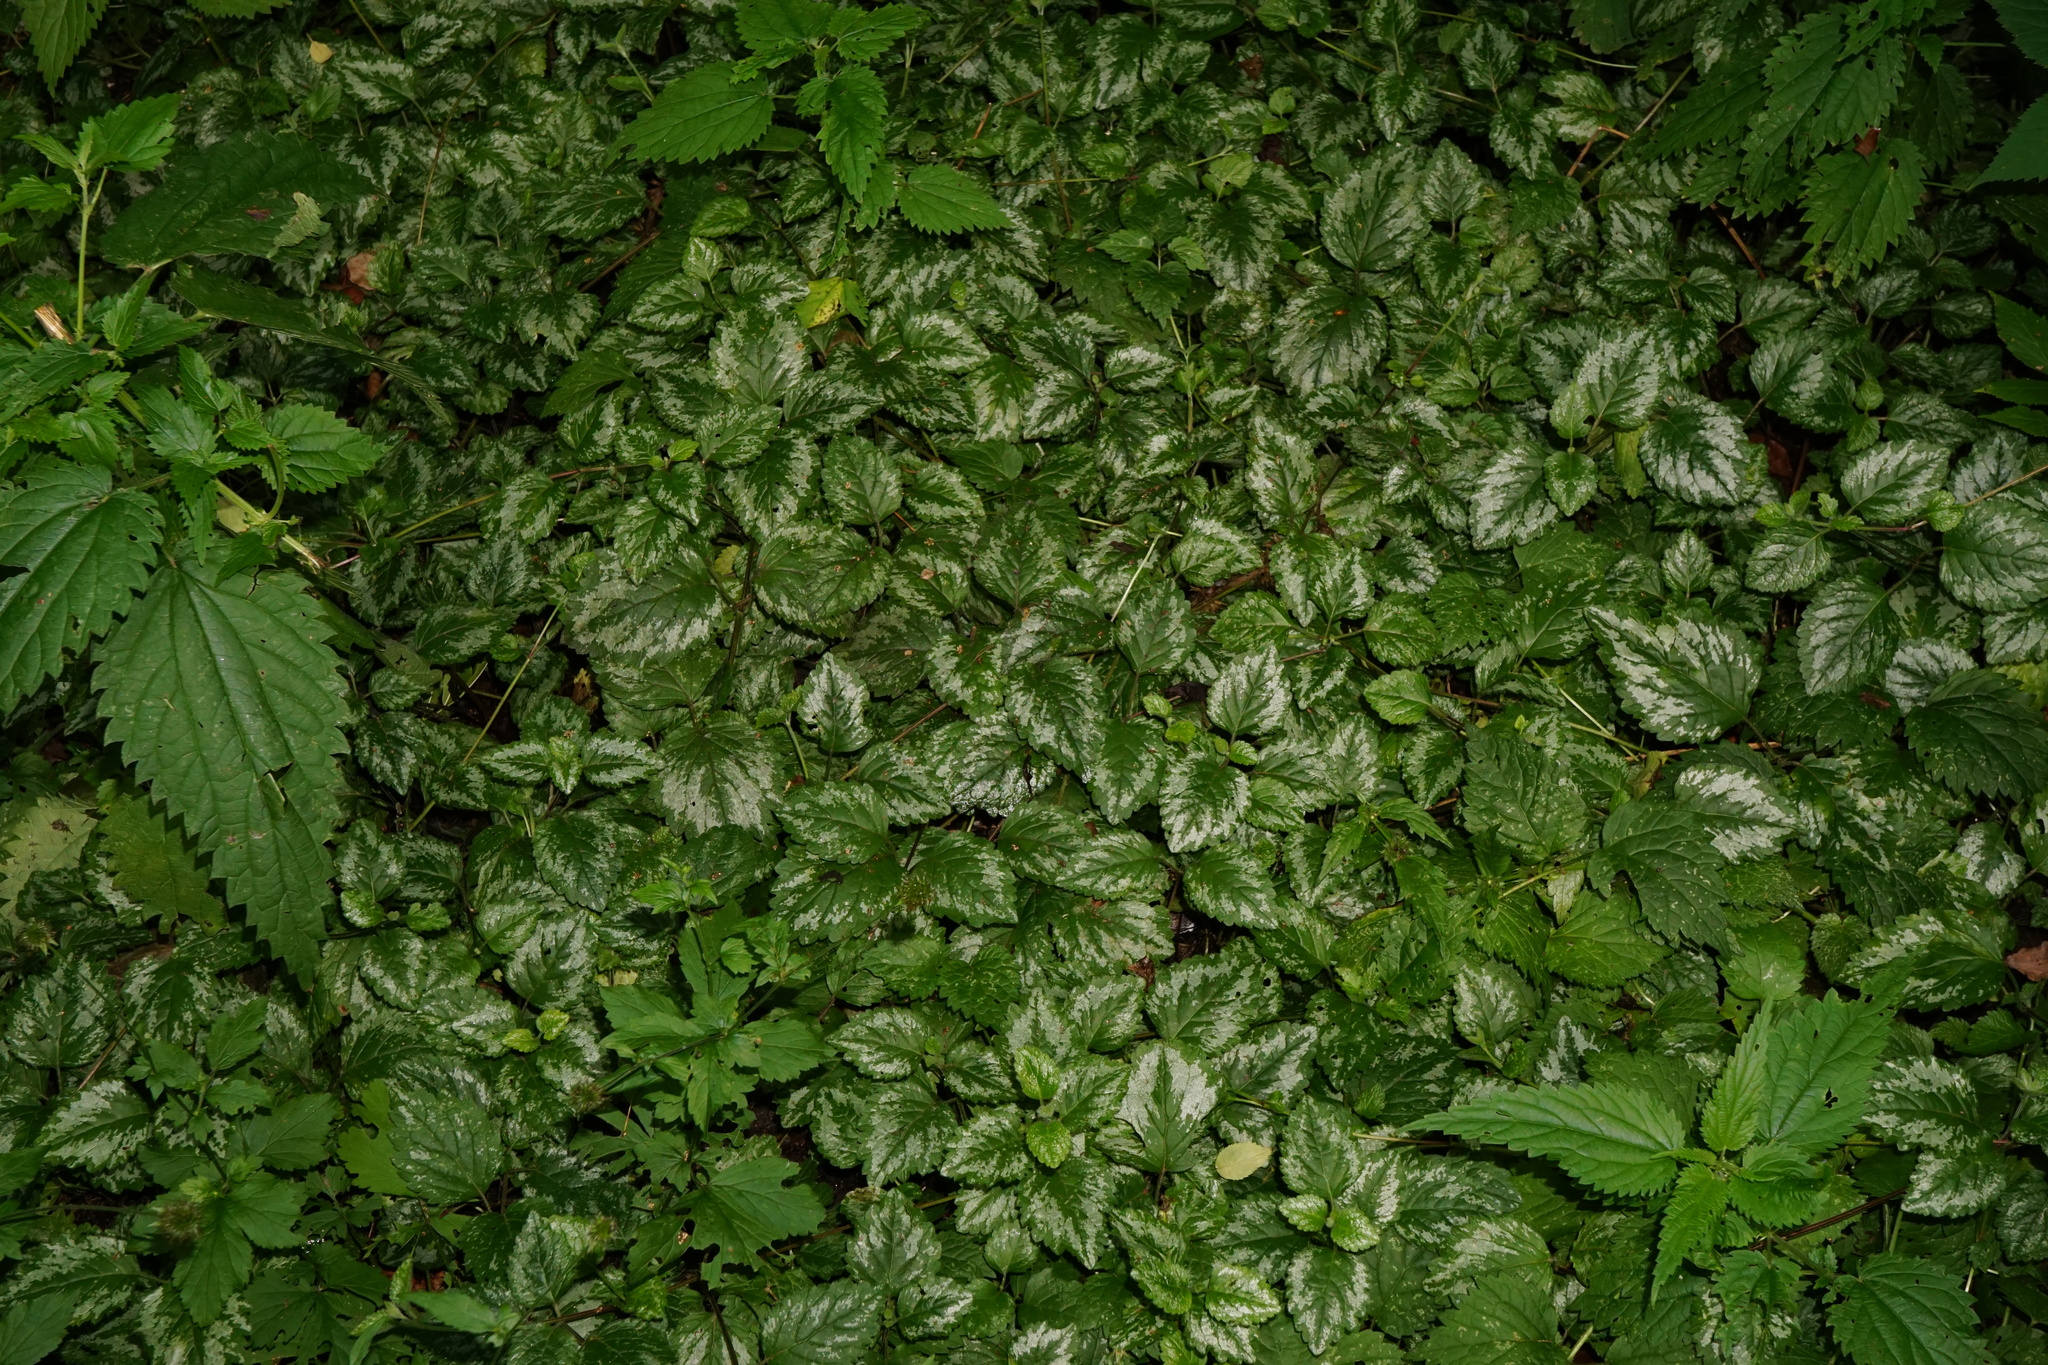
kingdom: Plantae
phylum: Tracheophyta
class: Magnoliopsida
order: Lamiales
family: Lamiaceae
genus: Lamium
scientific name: Lamium galeobdolon
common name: Yellow archangel
